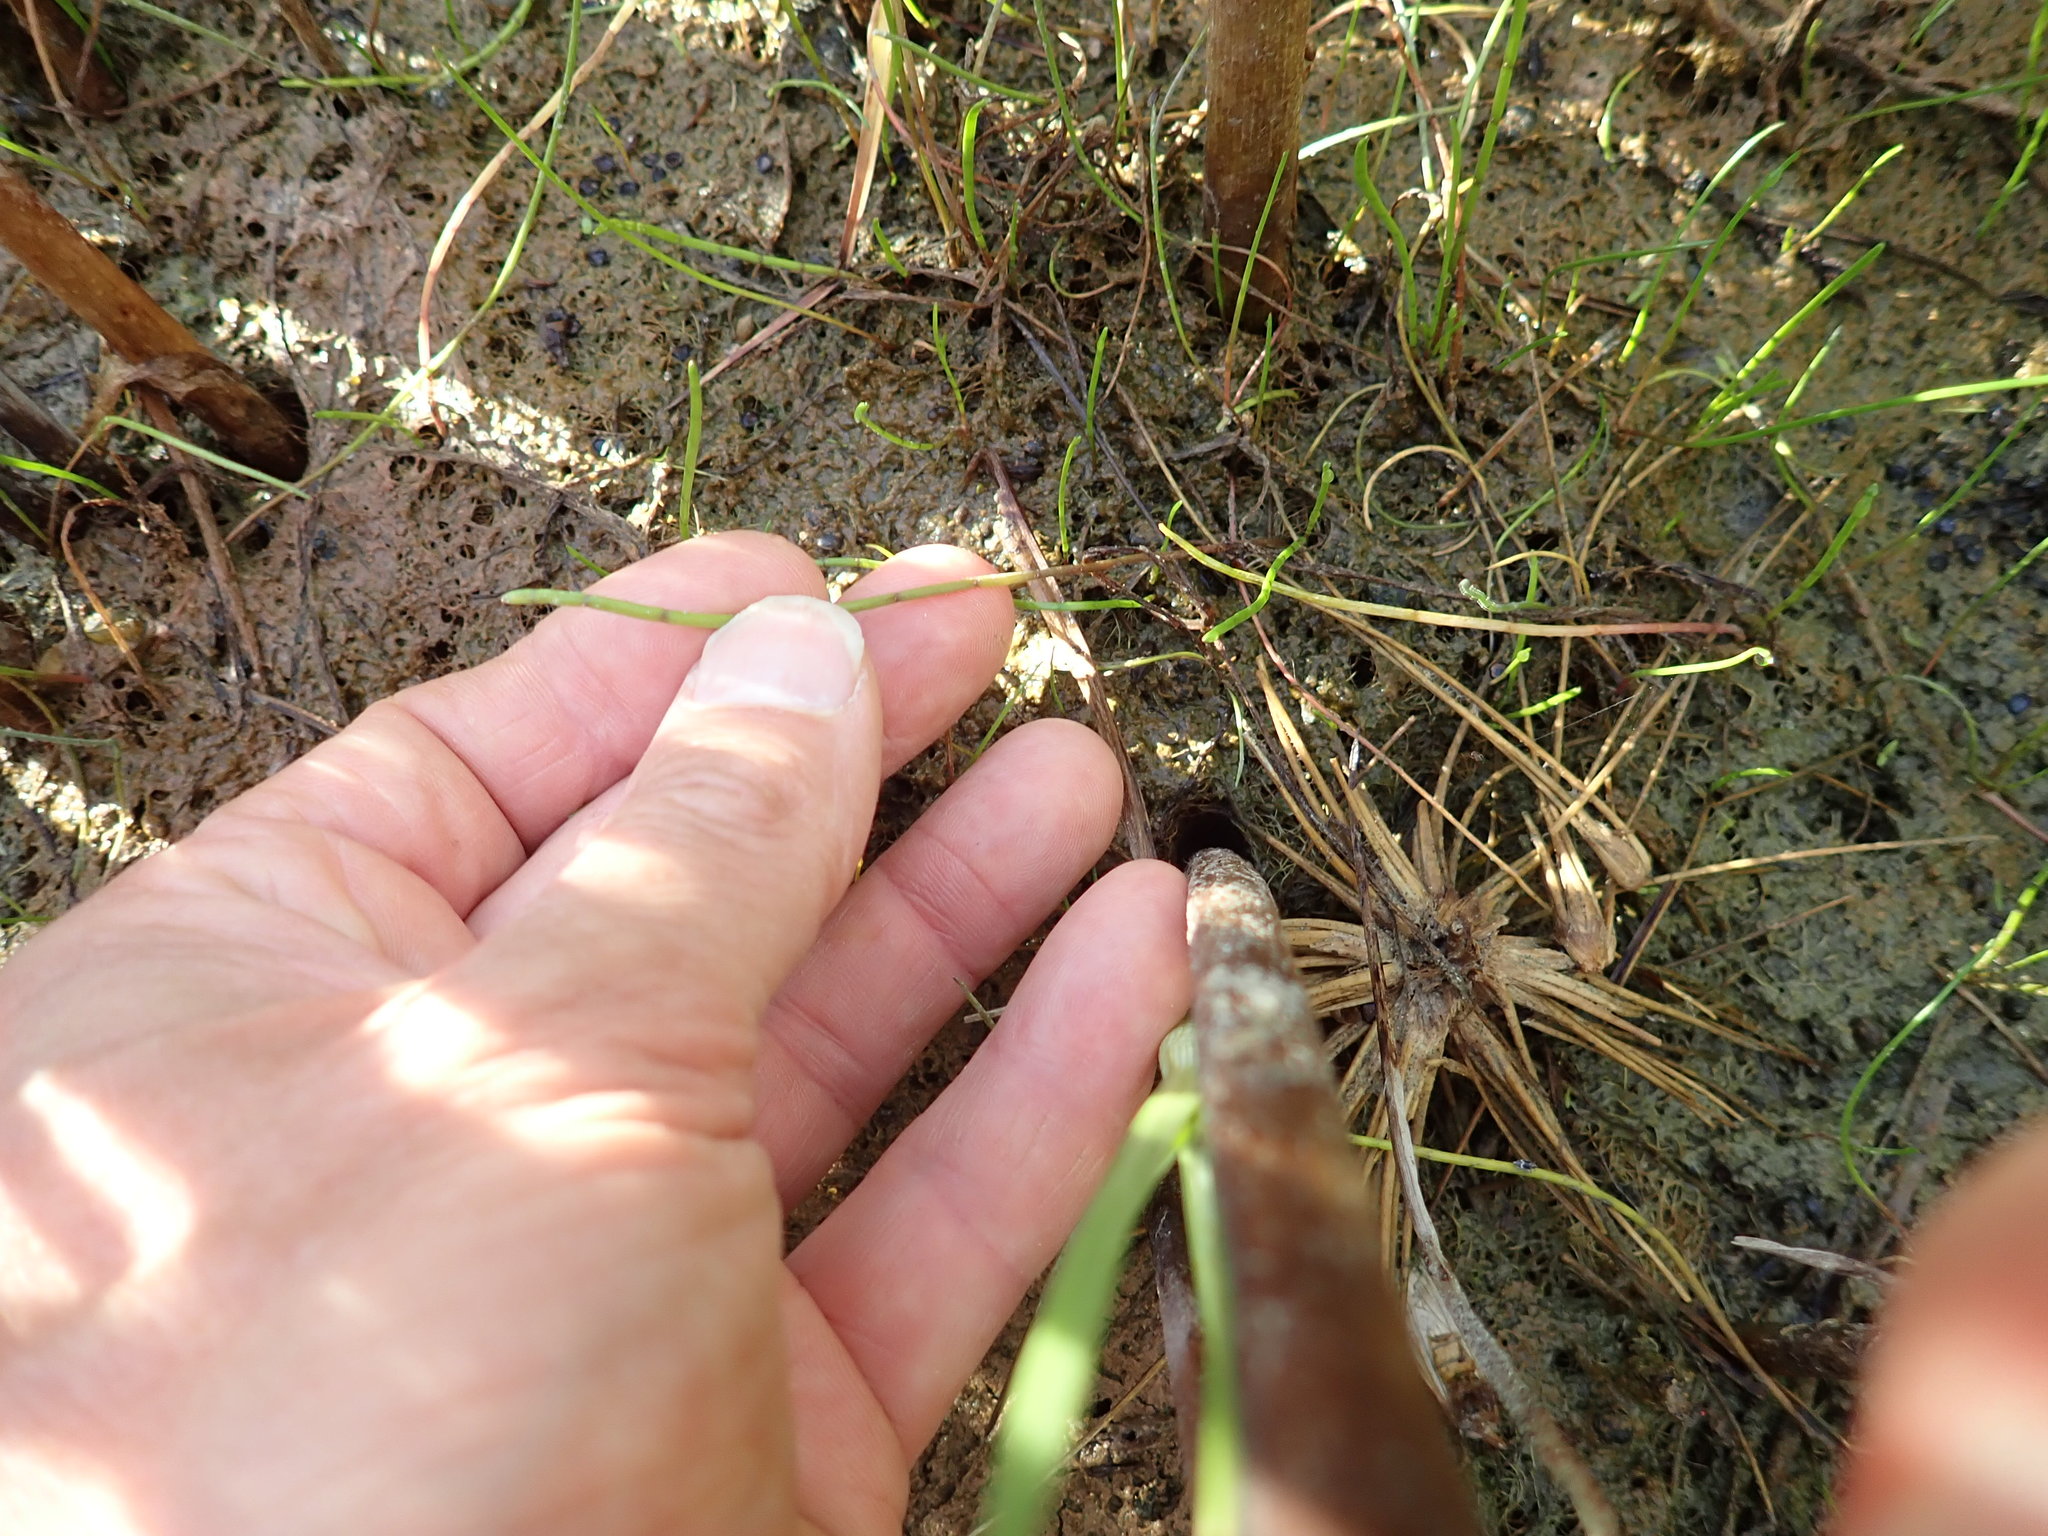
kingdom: Plantae
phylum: Tracheophyta
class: Magnoliopsida
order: Apiales
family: Apiaceae
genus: Lilaeopsis
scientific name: Lilaeopsis novae-zelandiae
